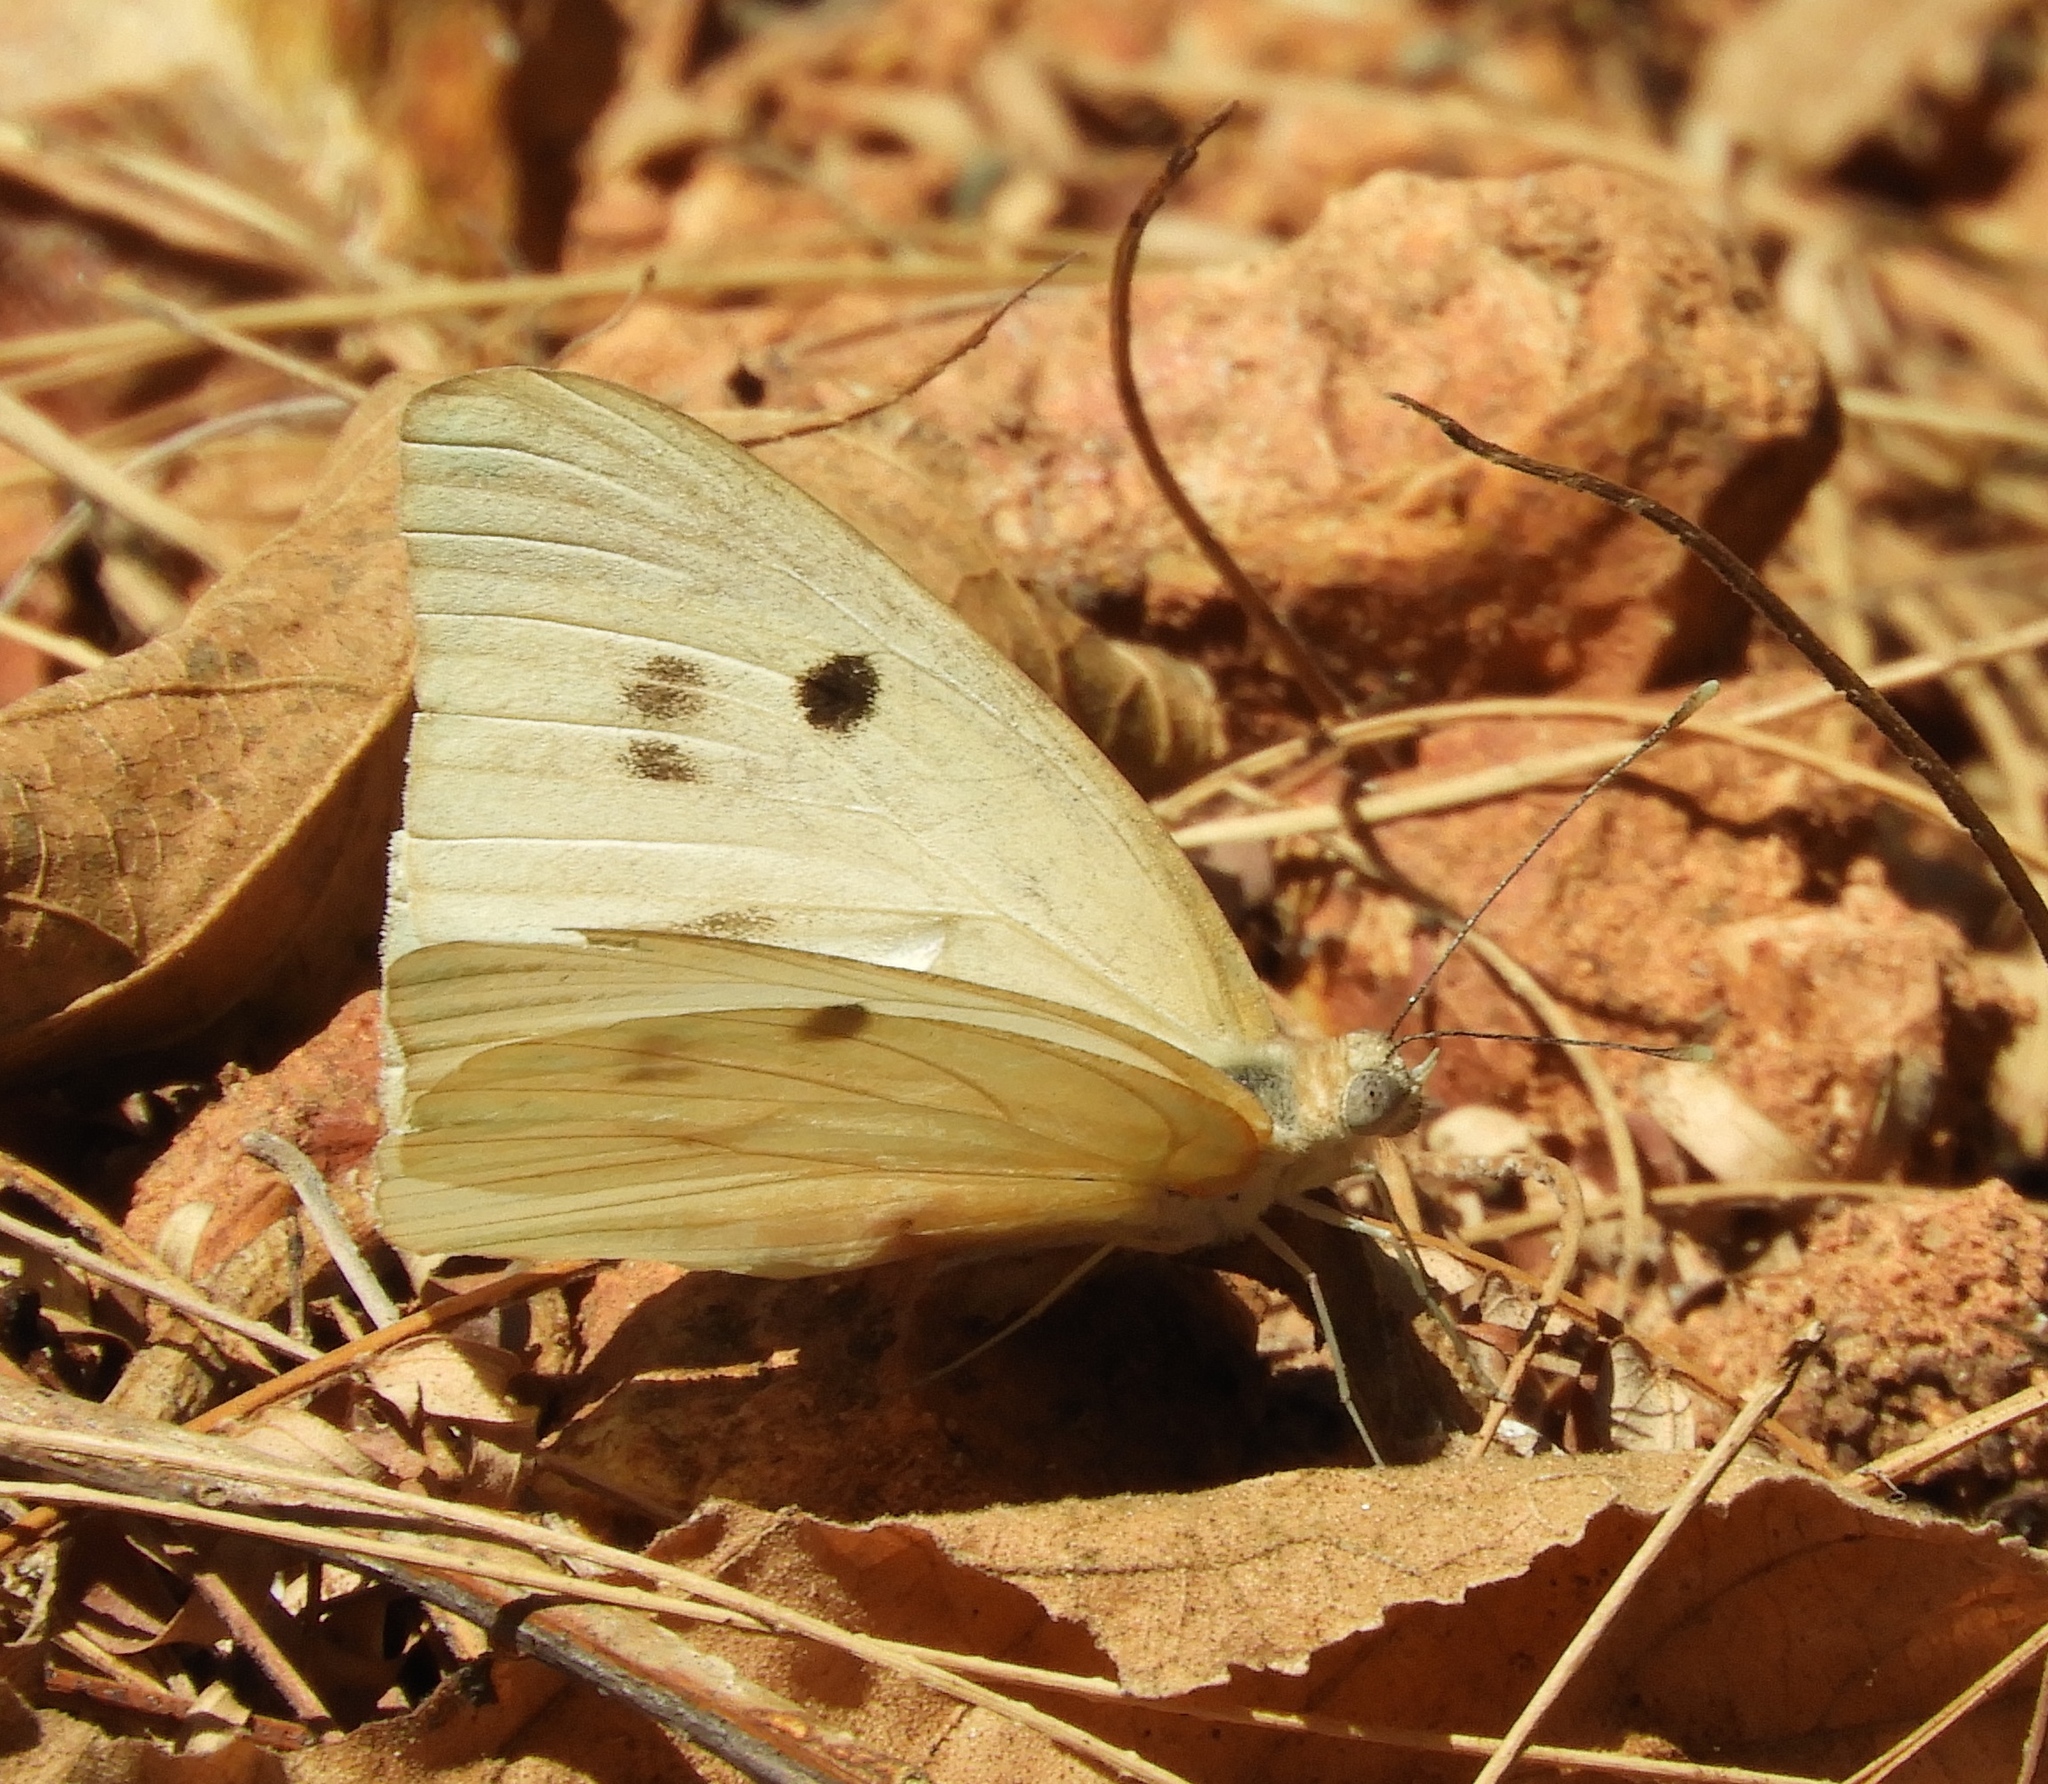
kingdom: Animalia
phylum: Arthropoda
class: Insecta
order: Lepidoptera
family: Pieridae
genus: Ganyra
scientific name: Ganyra josephina
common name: Giant white
